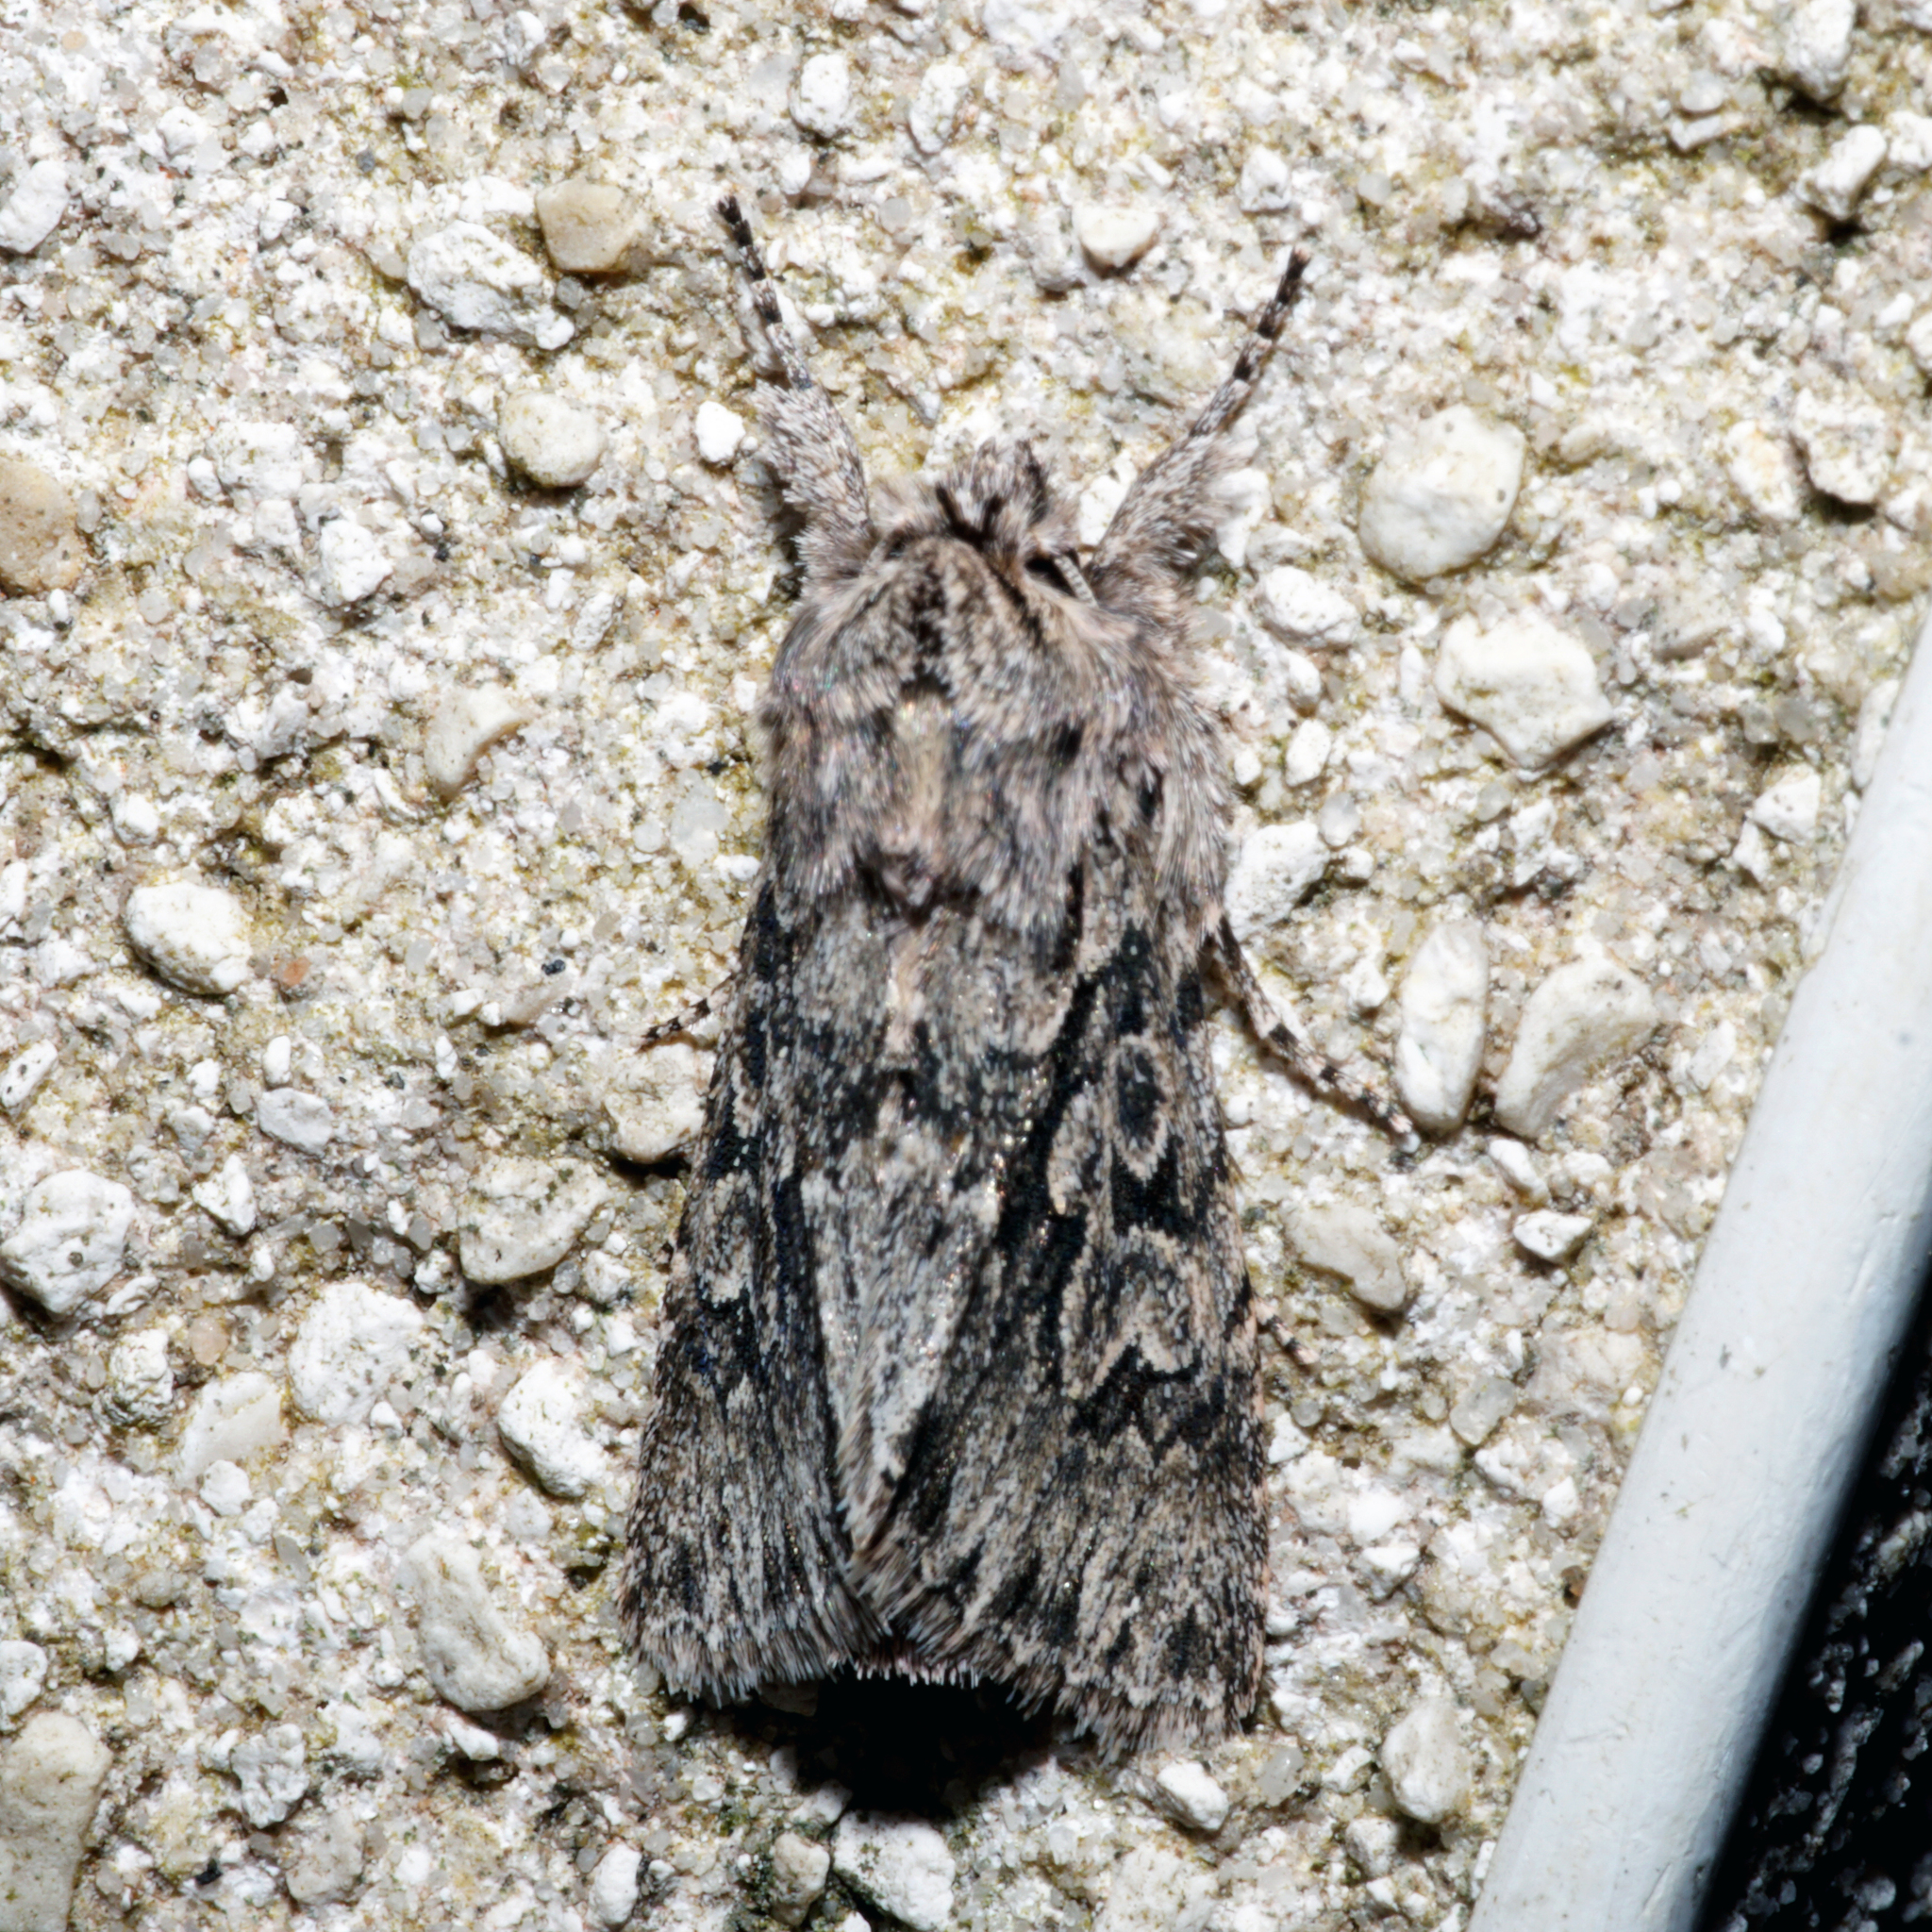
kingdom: Animalia
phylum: Arthropoda
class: Insecta
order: Lepidoptera
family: Noctuidae
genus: Xylocampa
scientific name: Xylocampa areola
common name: Early grey
